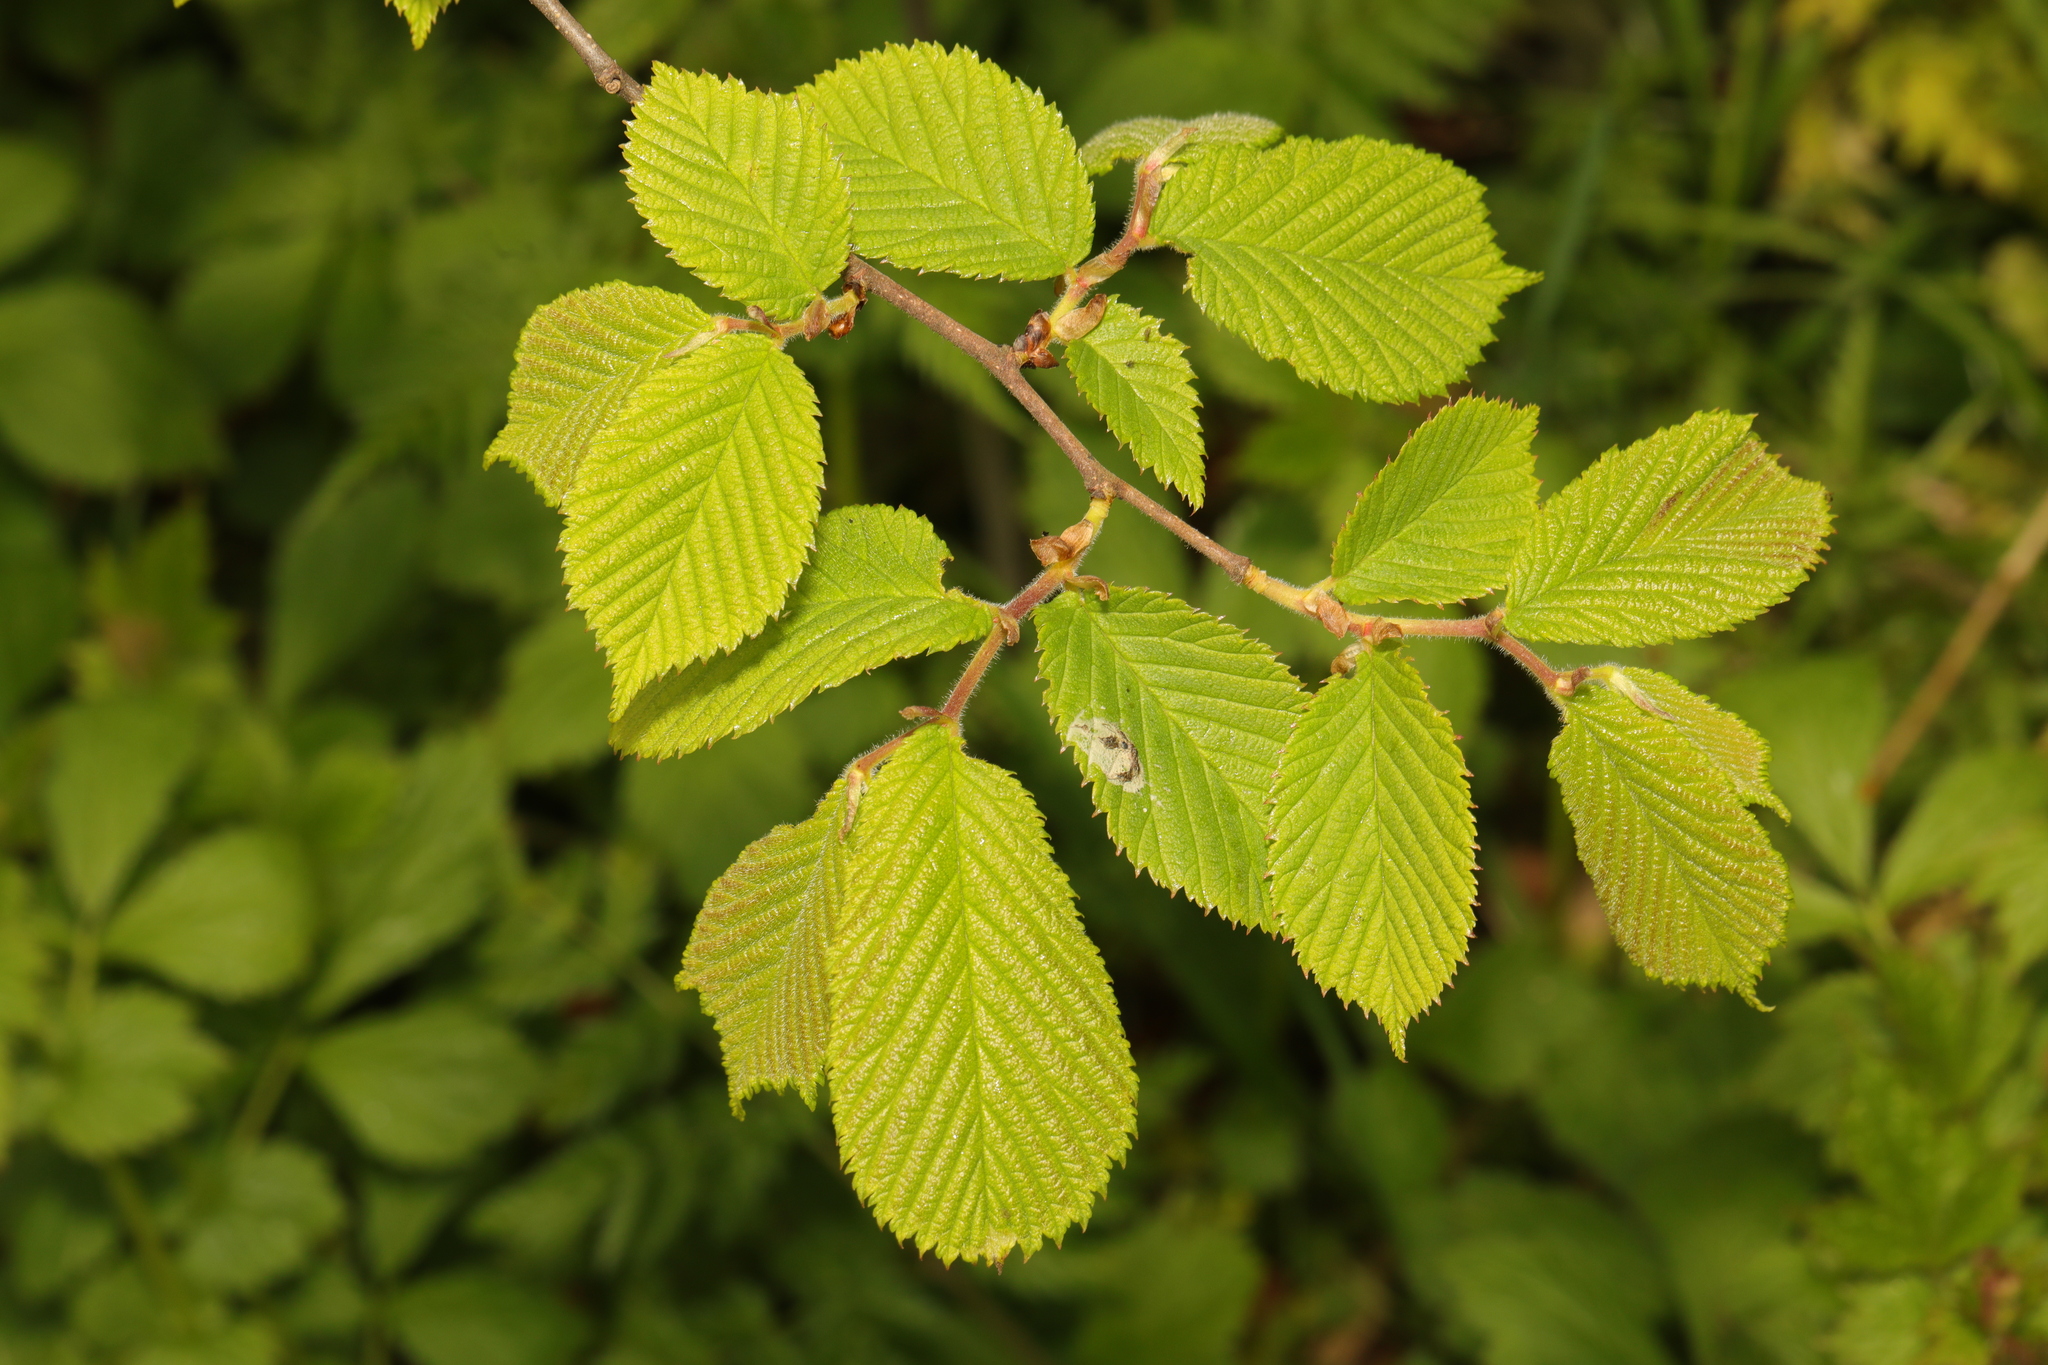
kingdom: Plantae
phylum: Tracheophyta
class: Magnoliopsida
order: Rosales
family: Ulmaceae
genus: Ulmus
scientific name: Ulmus glabra
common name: Wych elm
